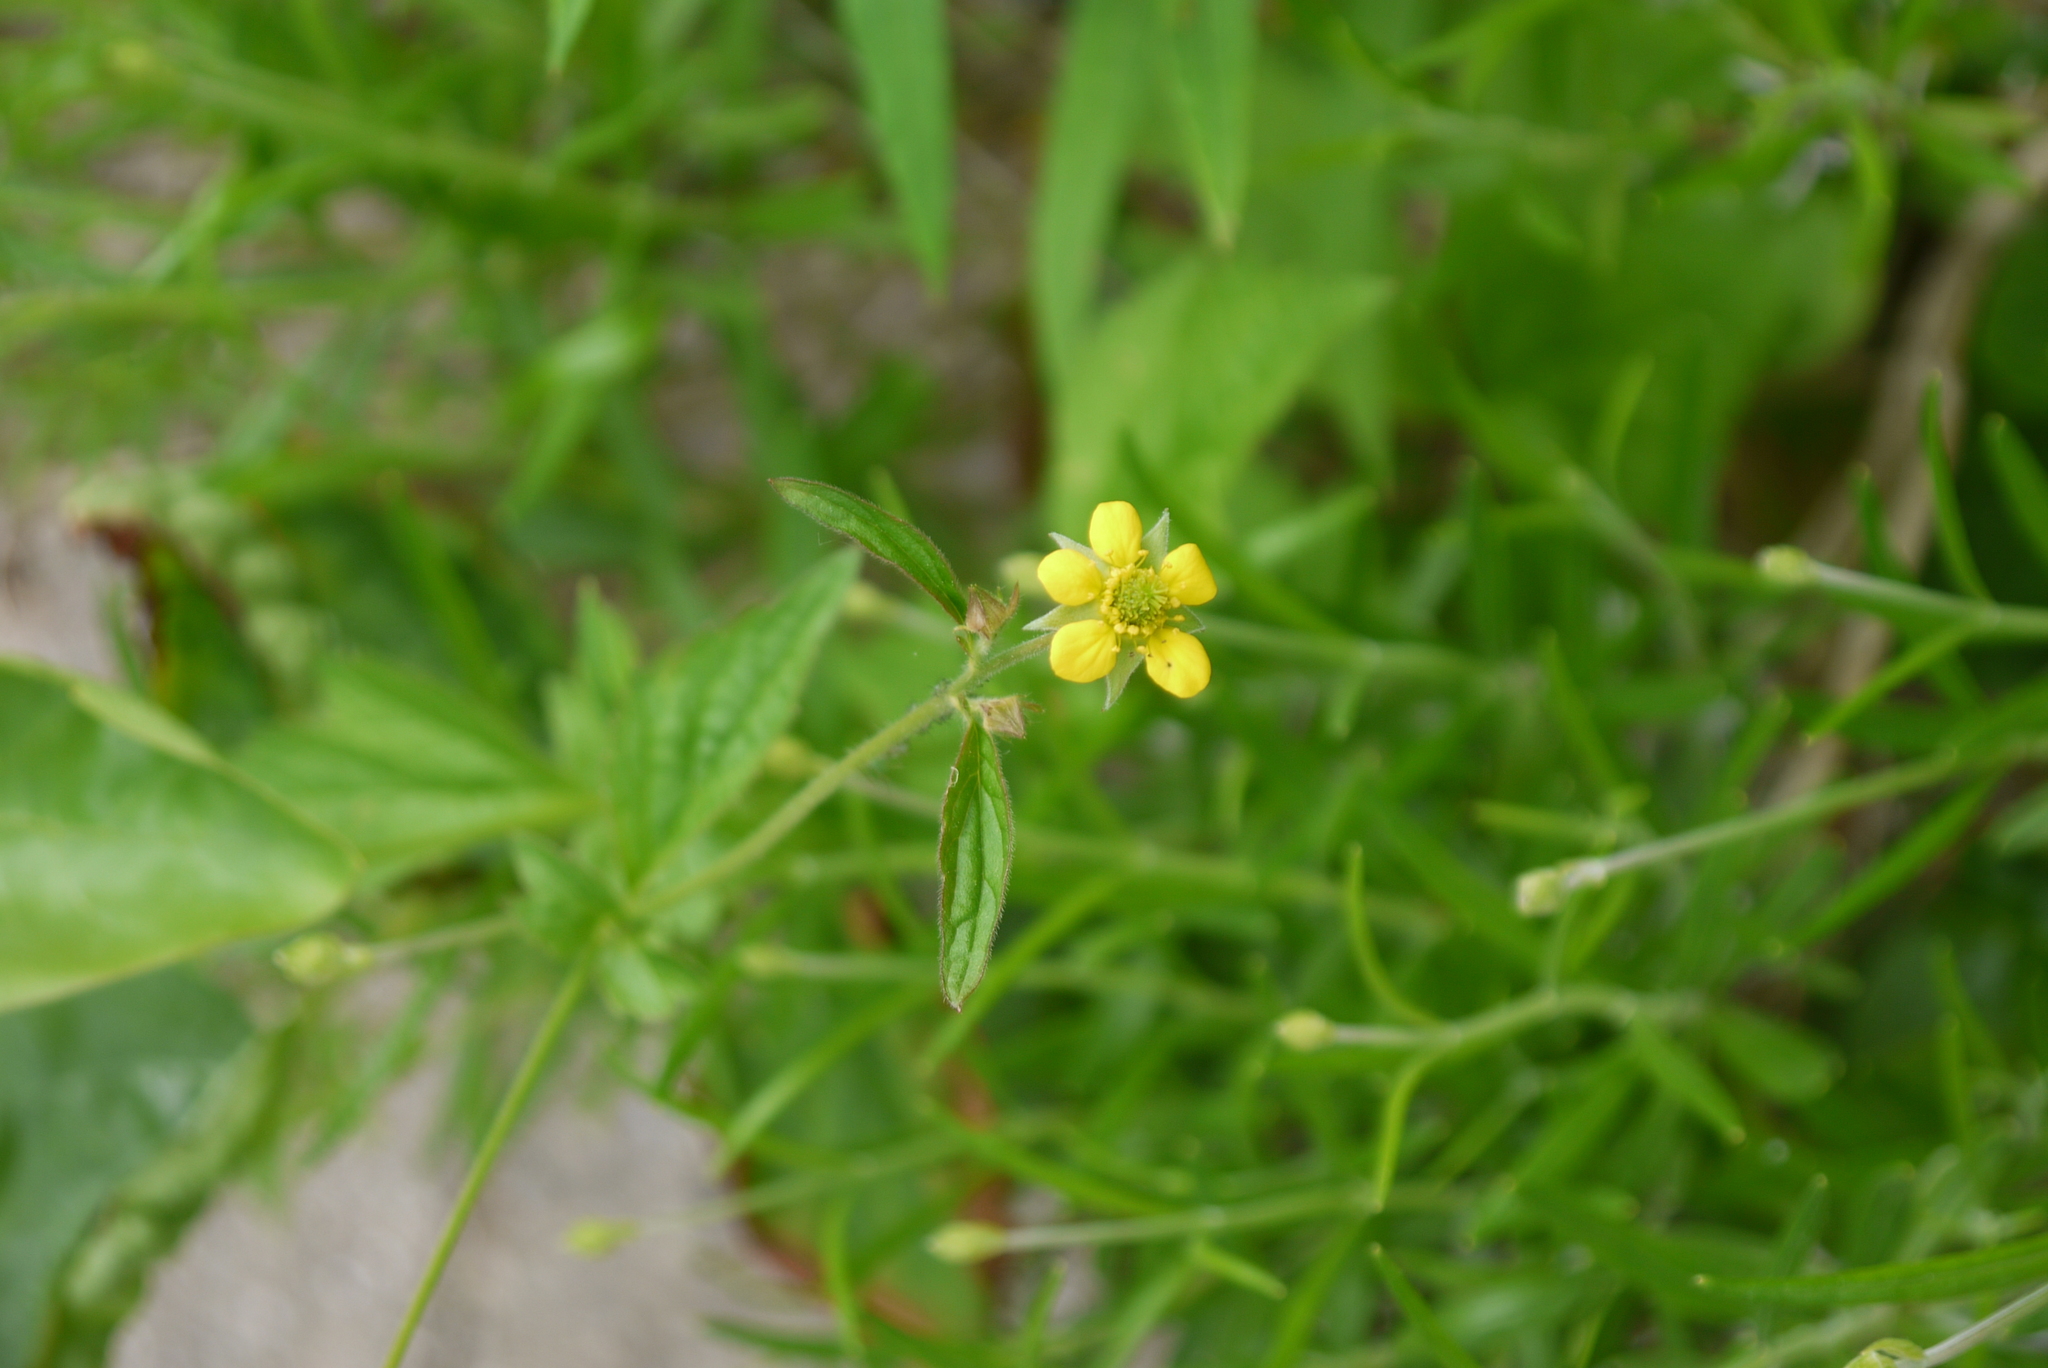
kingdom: Plantae
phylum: Tracheophyta
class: Magnoliopsida
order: Rosales
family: Rosaceae
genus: Geum
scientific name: Geum urbanum
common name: Wood avens
